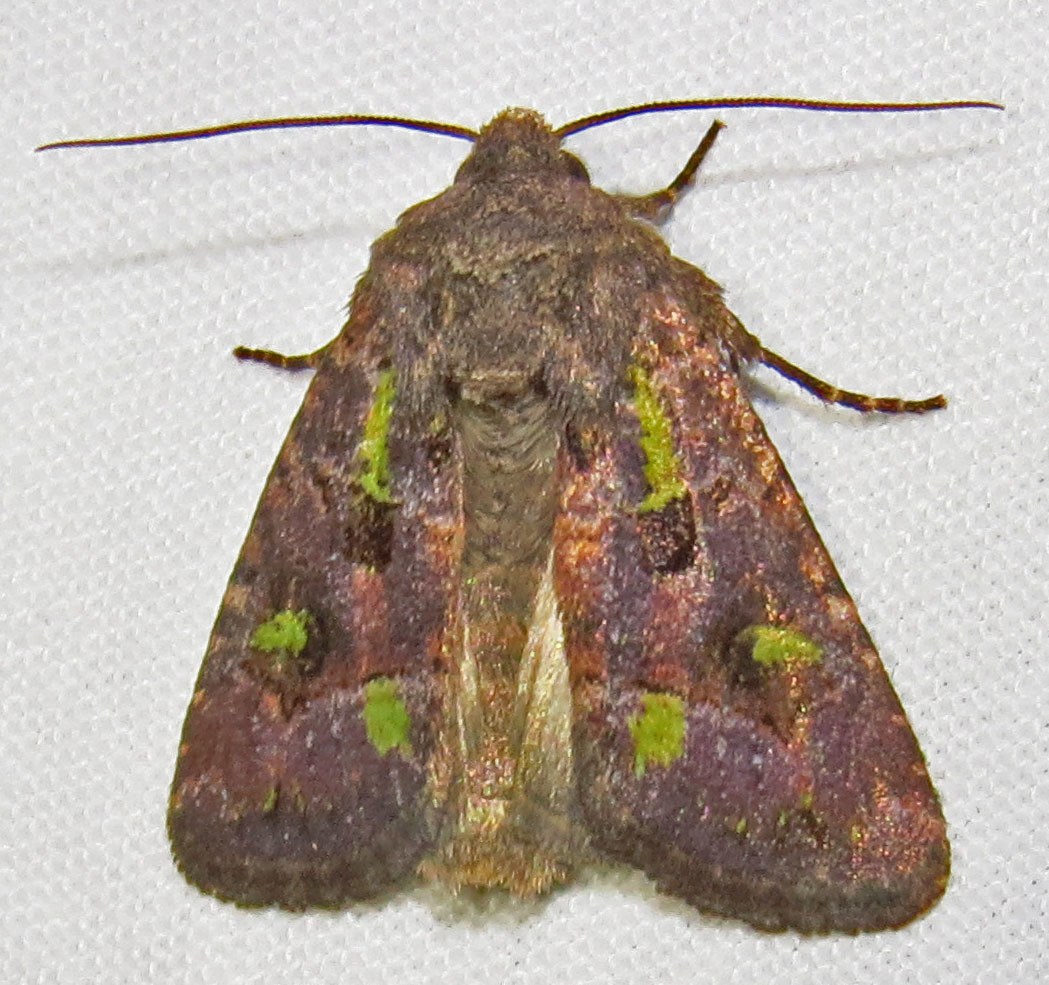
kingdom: Animalia
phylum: Arthropoda
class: Insecta
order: Lepidoptera
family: Noctuidae
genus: Lacinipolia
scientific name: Lacinipolia renigera
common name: Kidney-spotted minor
